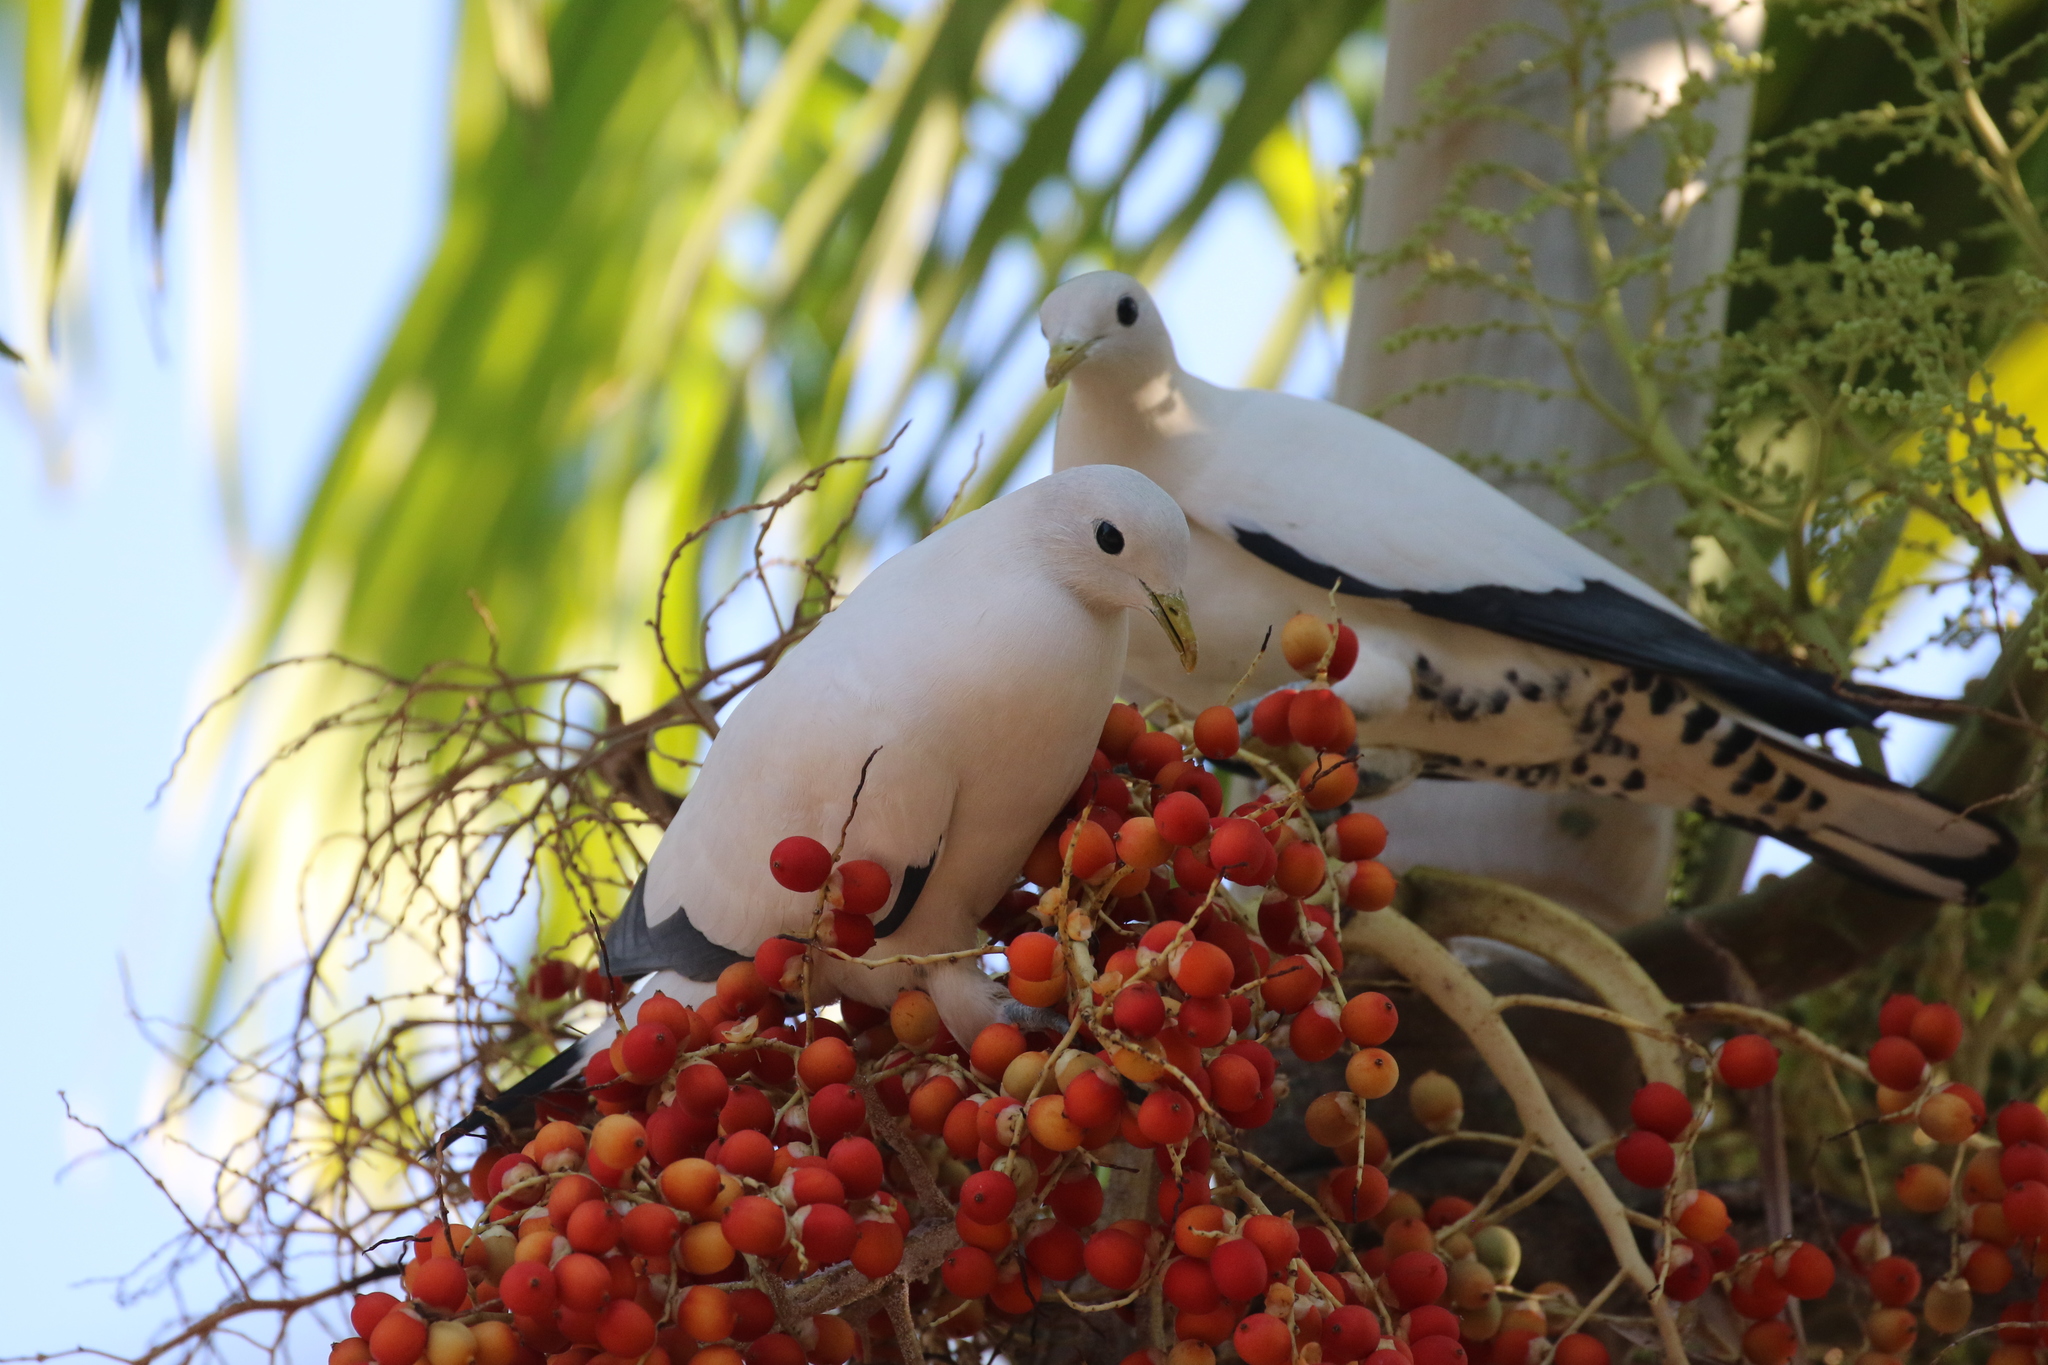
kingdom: Animalia
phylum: Chordata
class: Aves
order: Columbiformes
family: Columbidae
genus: Ducula
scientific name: Ducula spilorrhoa
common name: Torresian imperial pigeon
